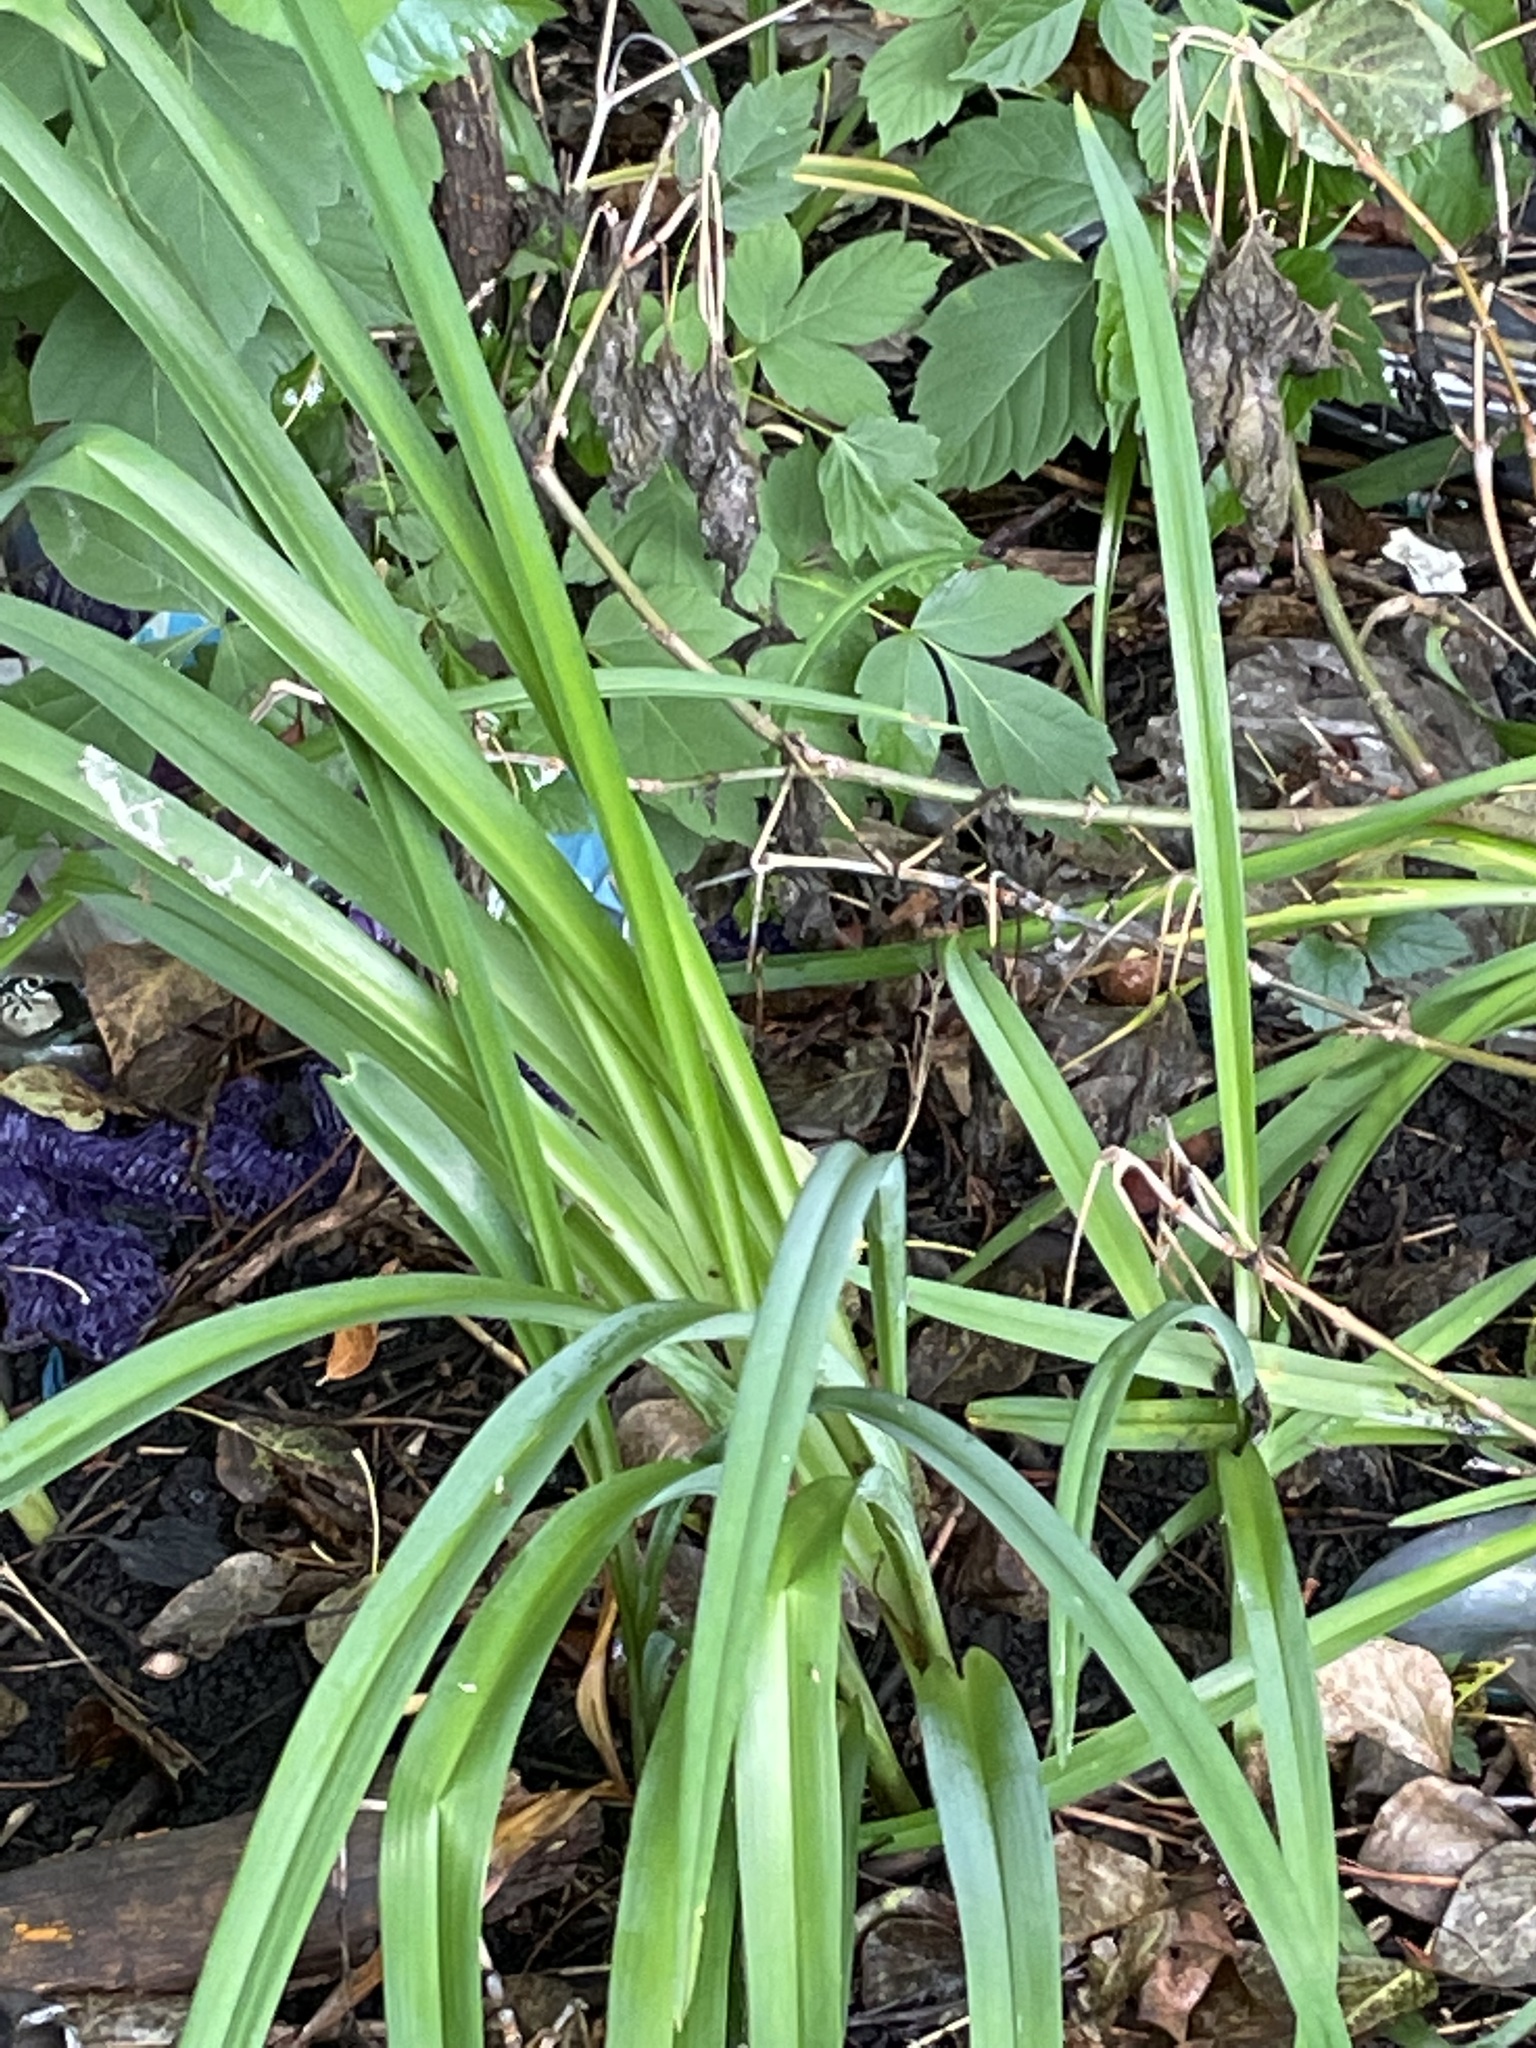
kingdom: Plantae
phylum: Tracheophyta
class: Liliopsida
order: Asparagales
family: Asphodelaceae
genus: Hemerocallis
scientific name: Hemerocallis fulva
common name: Orange day-lily
